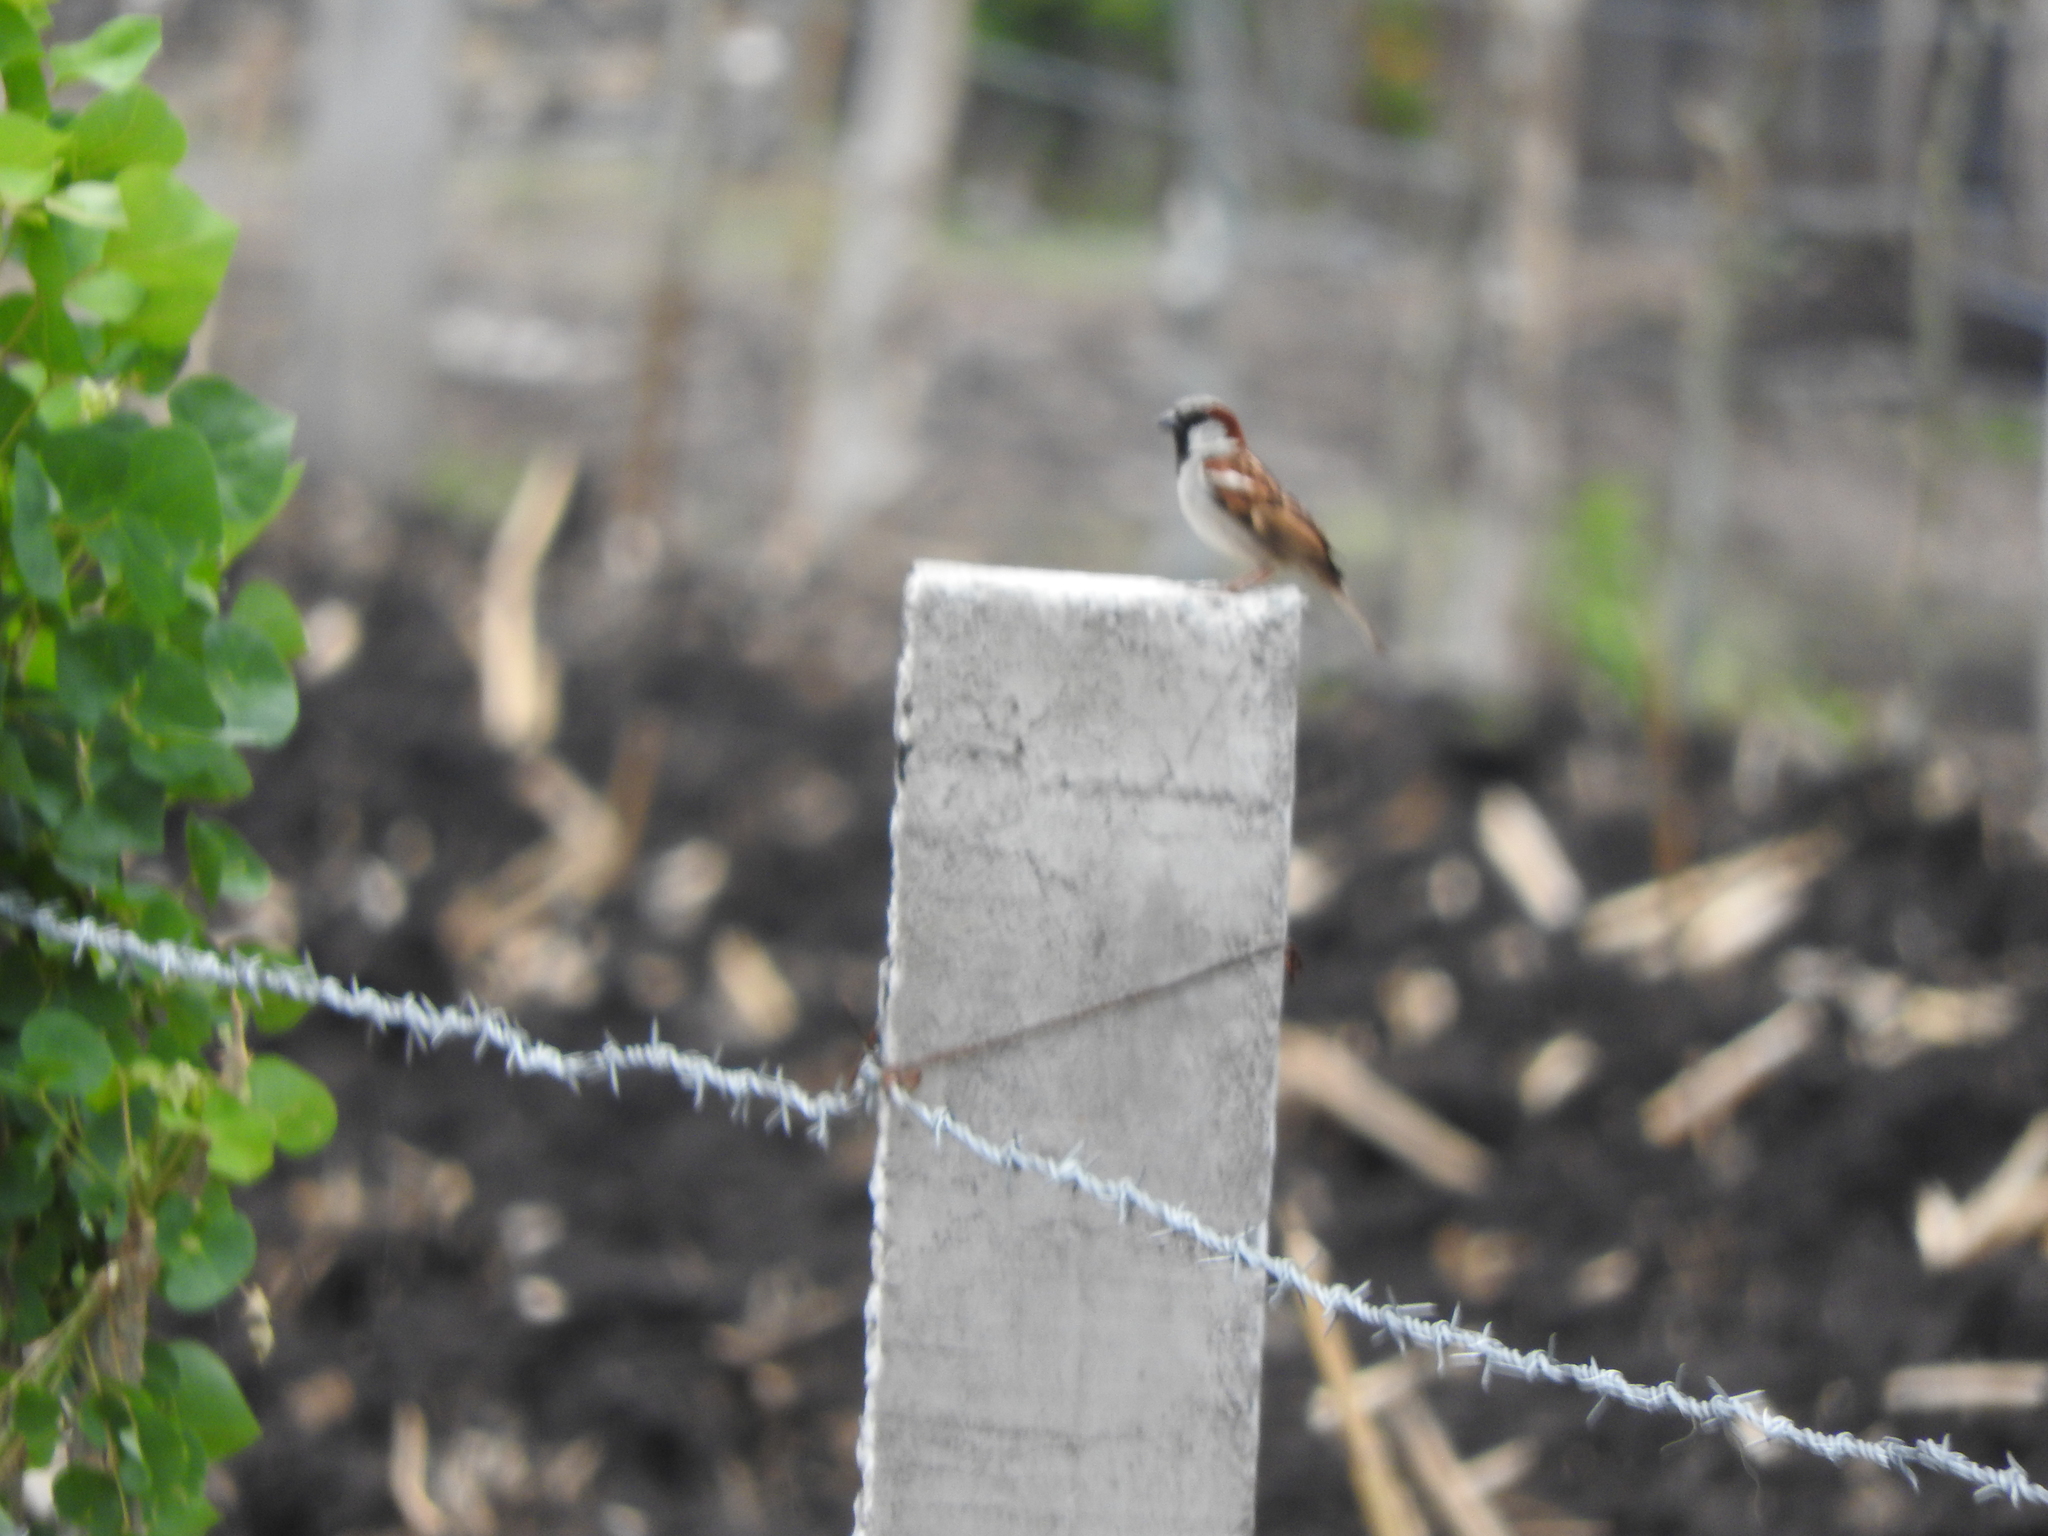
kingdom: Animalia
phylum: Chordata
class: Aves
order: Passeriformes
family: Passeridae
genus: Passer
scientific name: Passer domesticus
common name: House sparrow
